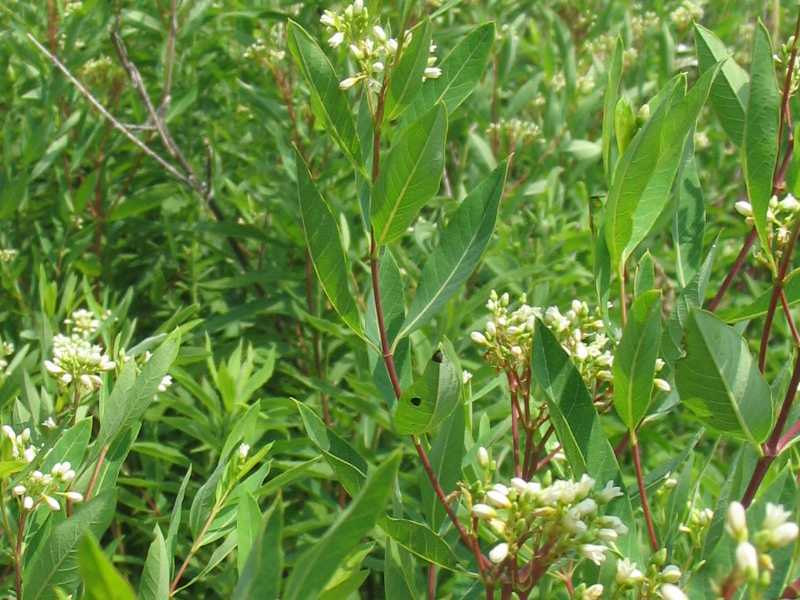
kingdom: Plantae
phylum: Tracheophyta
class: Magnoliopsida
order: Gentianales
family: Apocynaceae
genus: Apocynum
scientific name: Apocynum cannabinum
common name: Hemp dogbane
